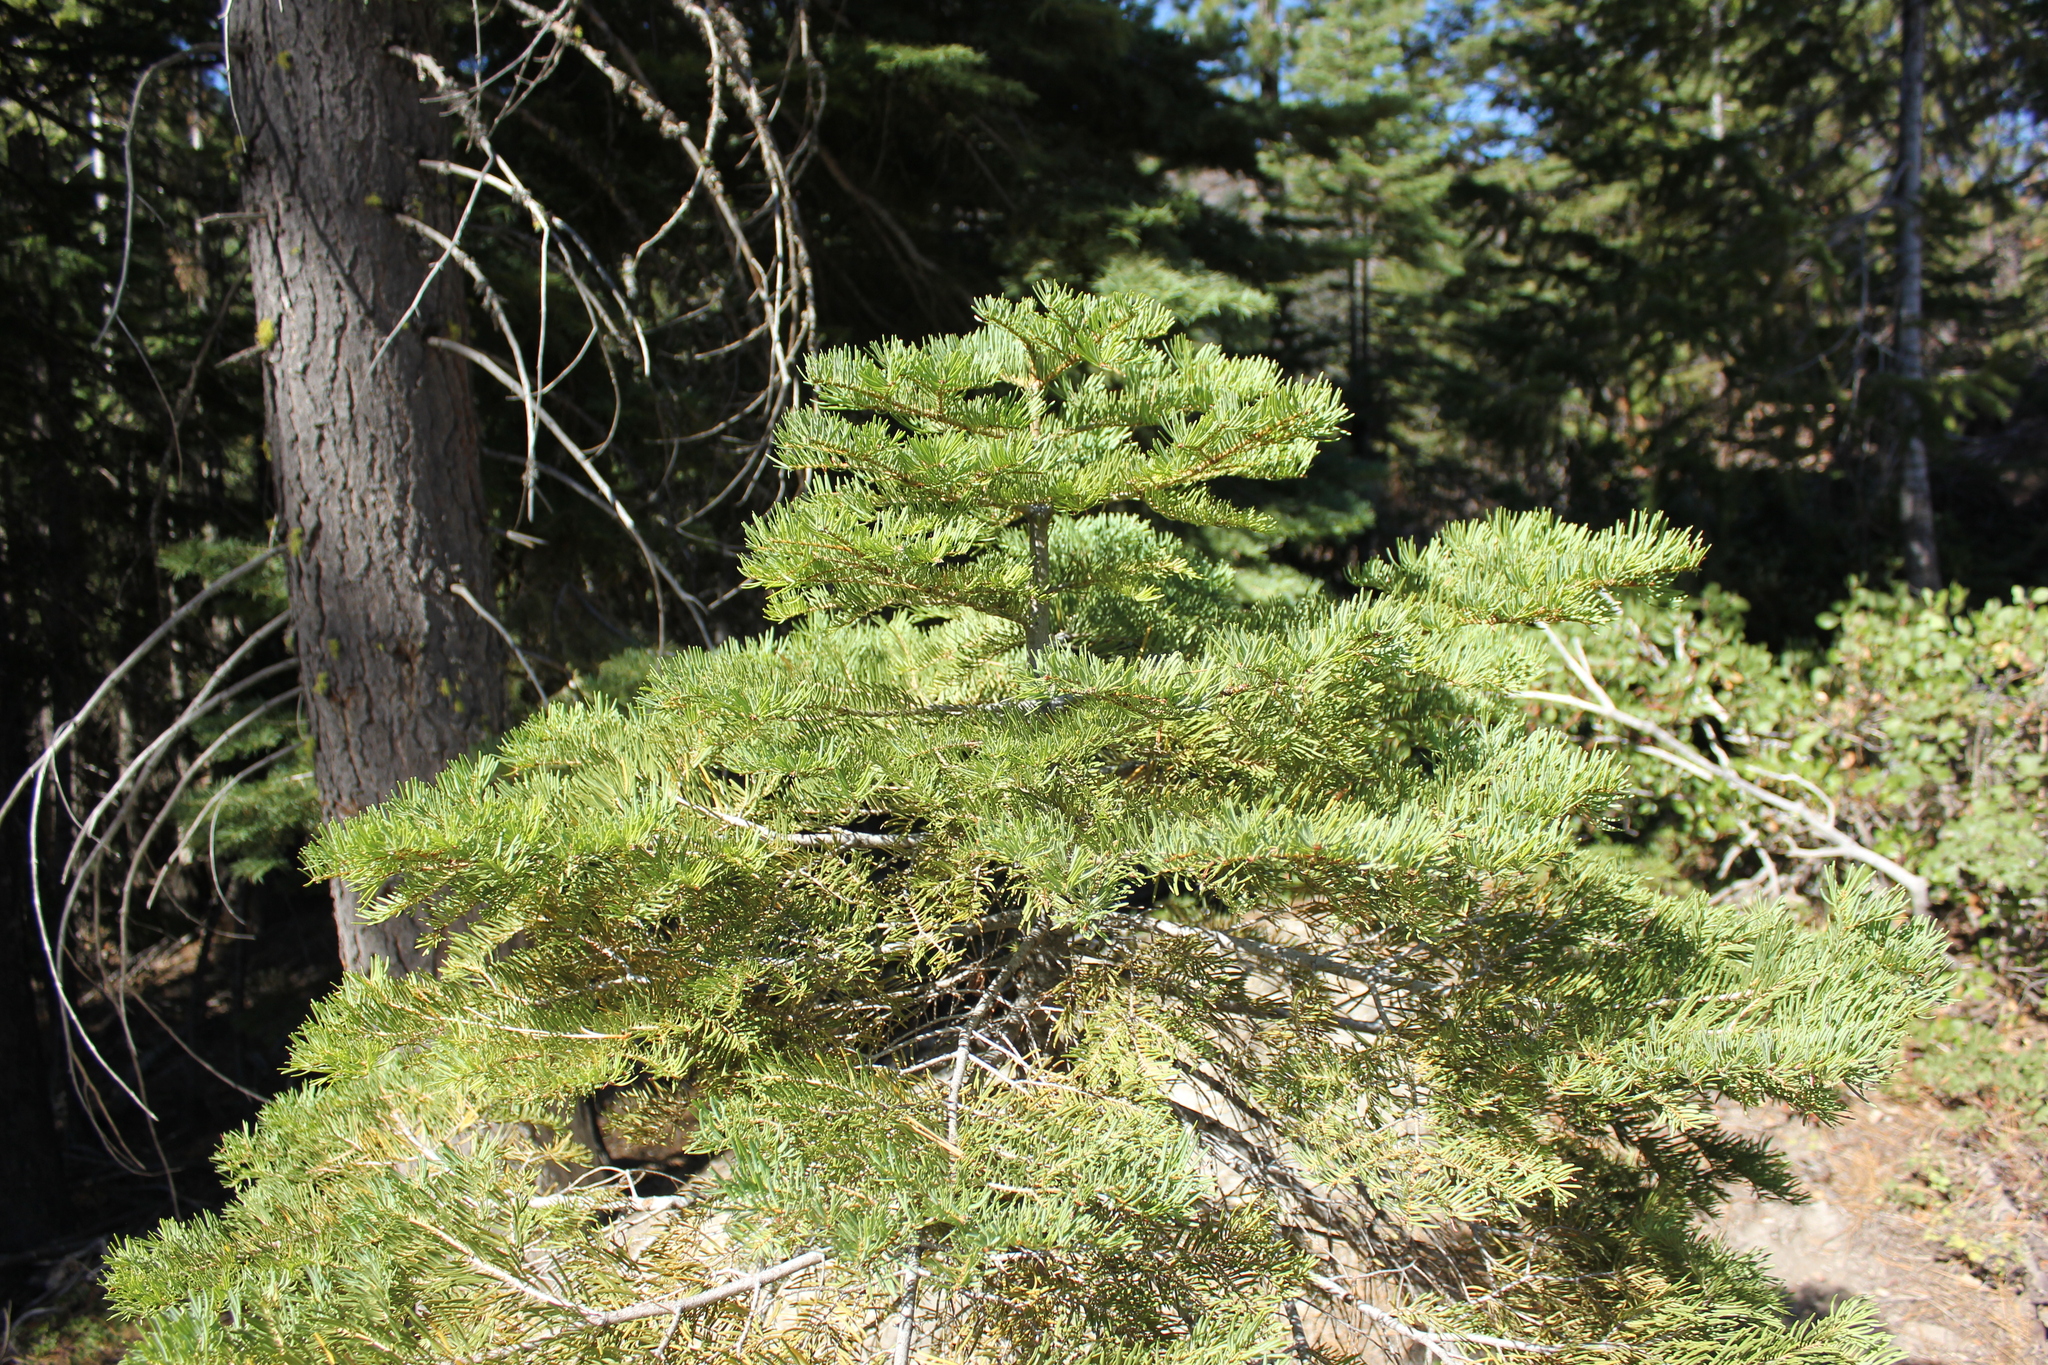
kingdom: Plantae
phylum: Tracheophyta
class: Pinopsida
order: Pinales
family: Pinaceae
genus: Abies
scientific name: Abies concolor
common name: Colorado fir
